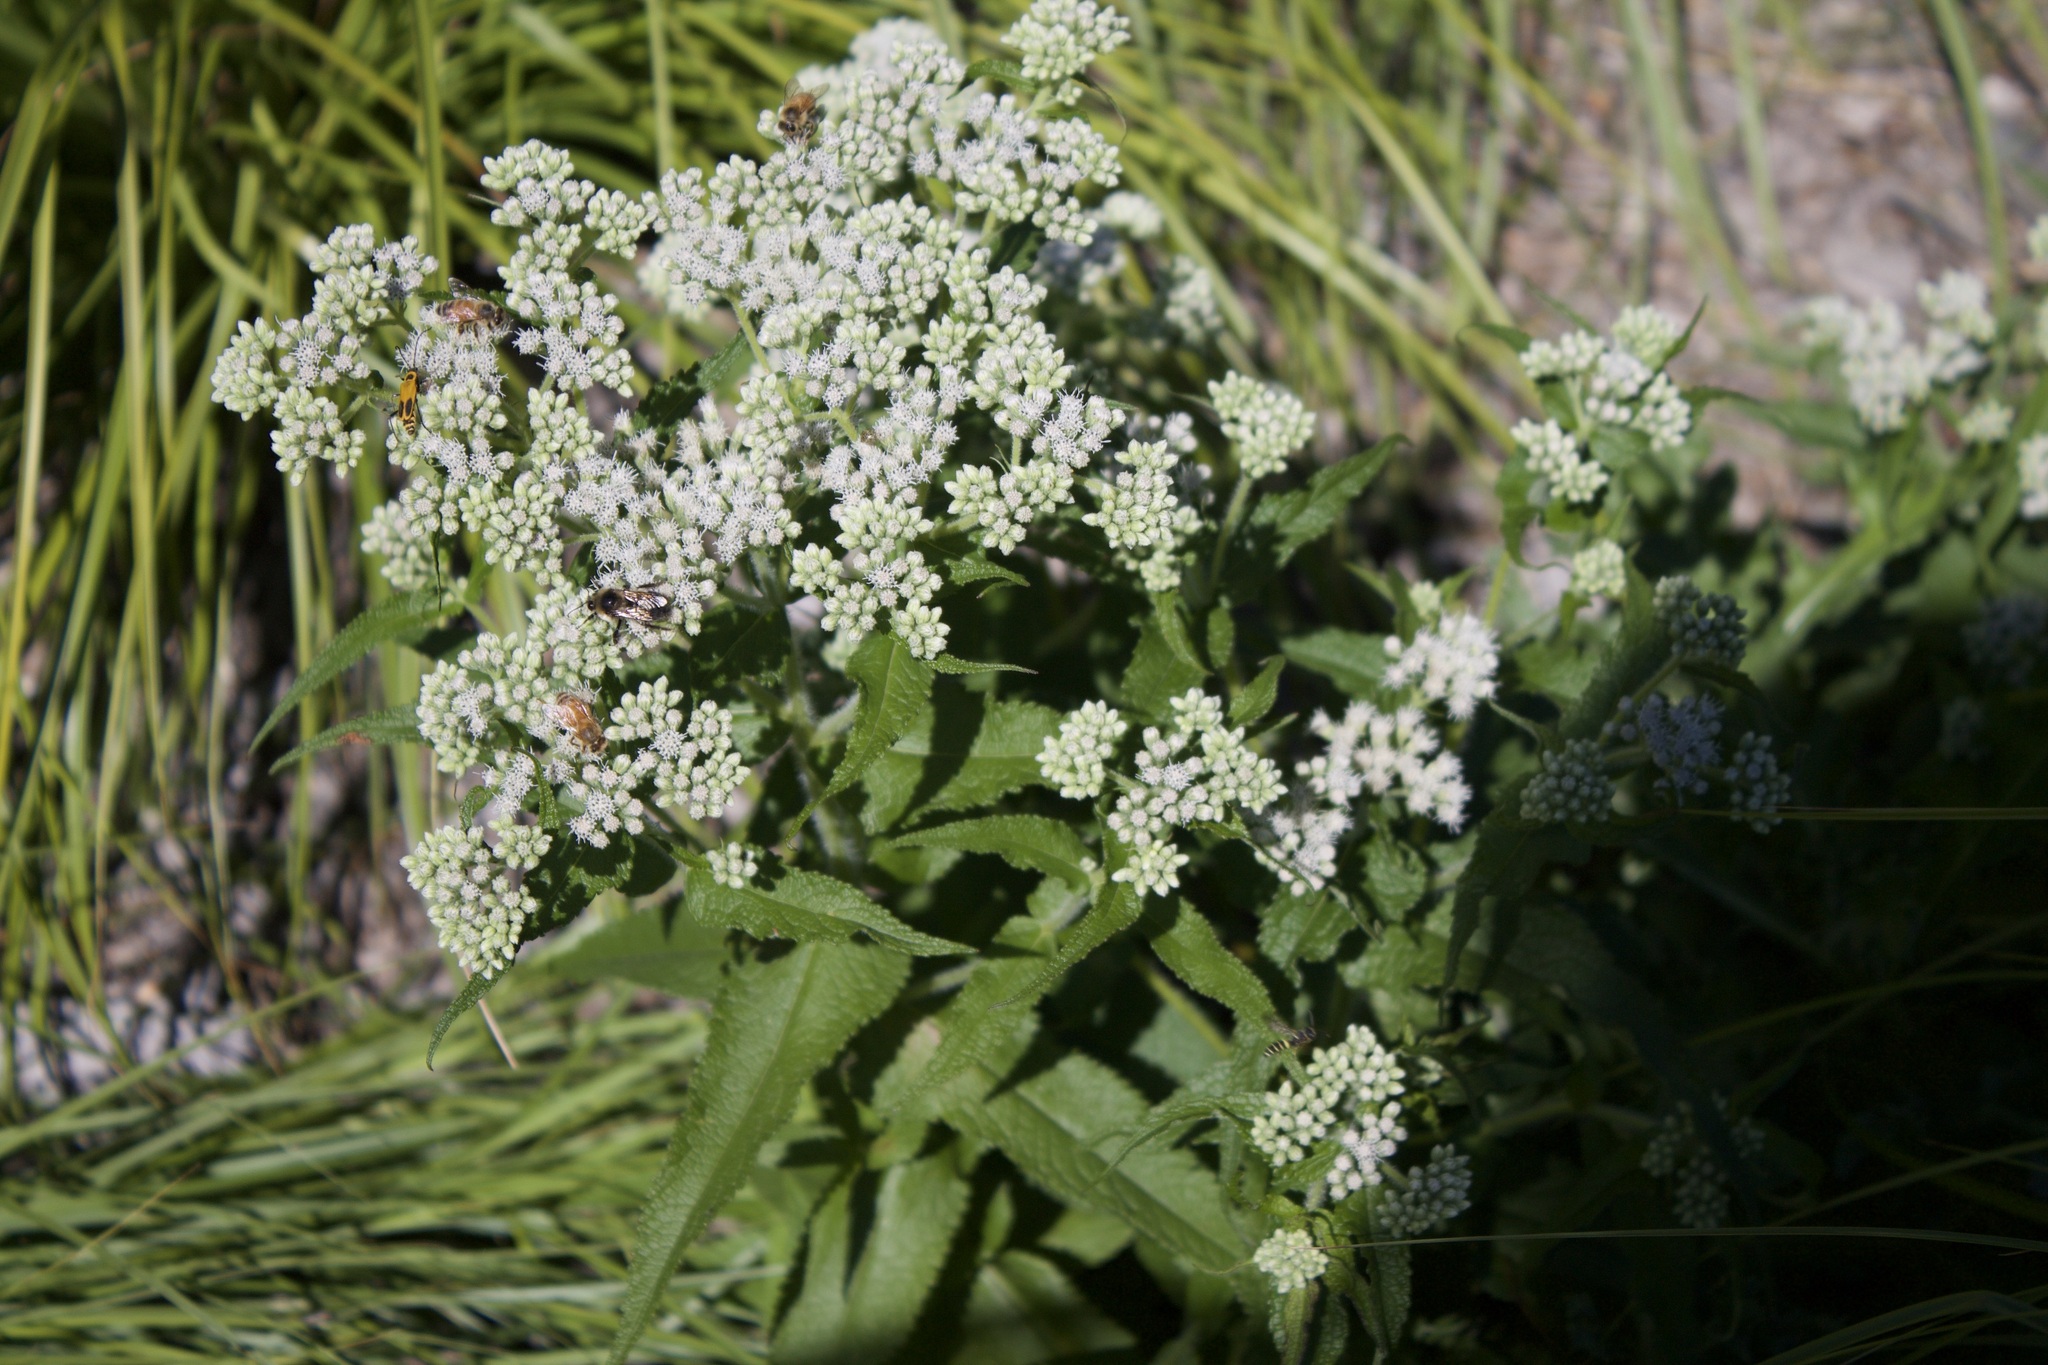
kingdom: Plantae
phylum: Tracheophyta
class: Magnoliopsida
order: Asterales
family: Asteraceae
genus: Eupatorium
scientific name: Eupatorium perfoliatum
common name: Boneset
